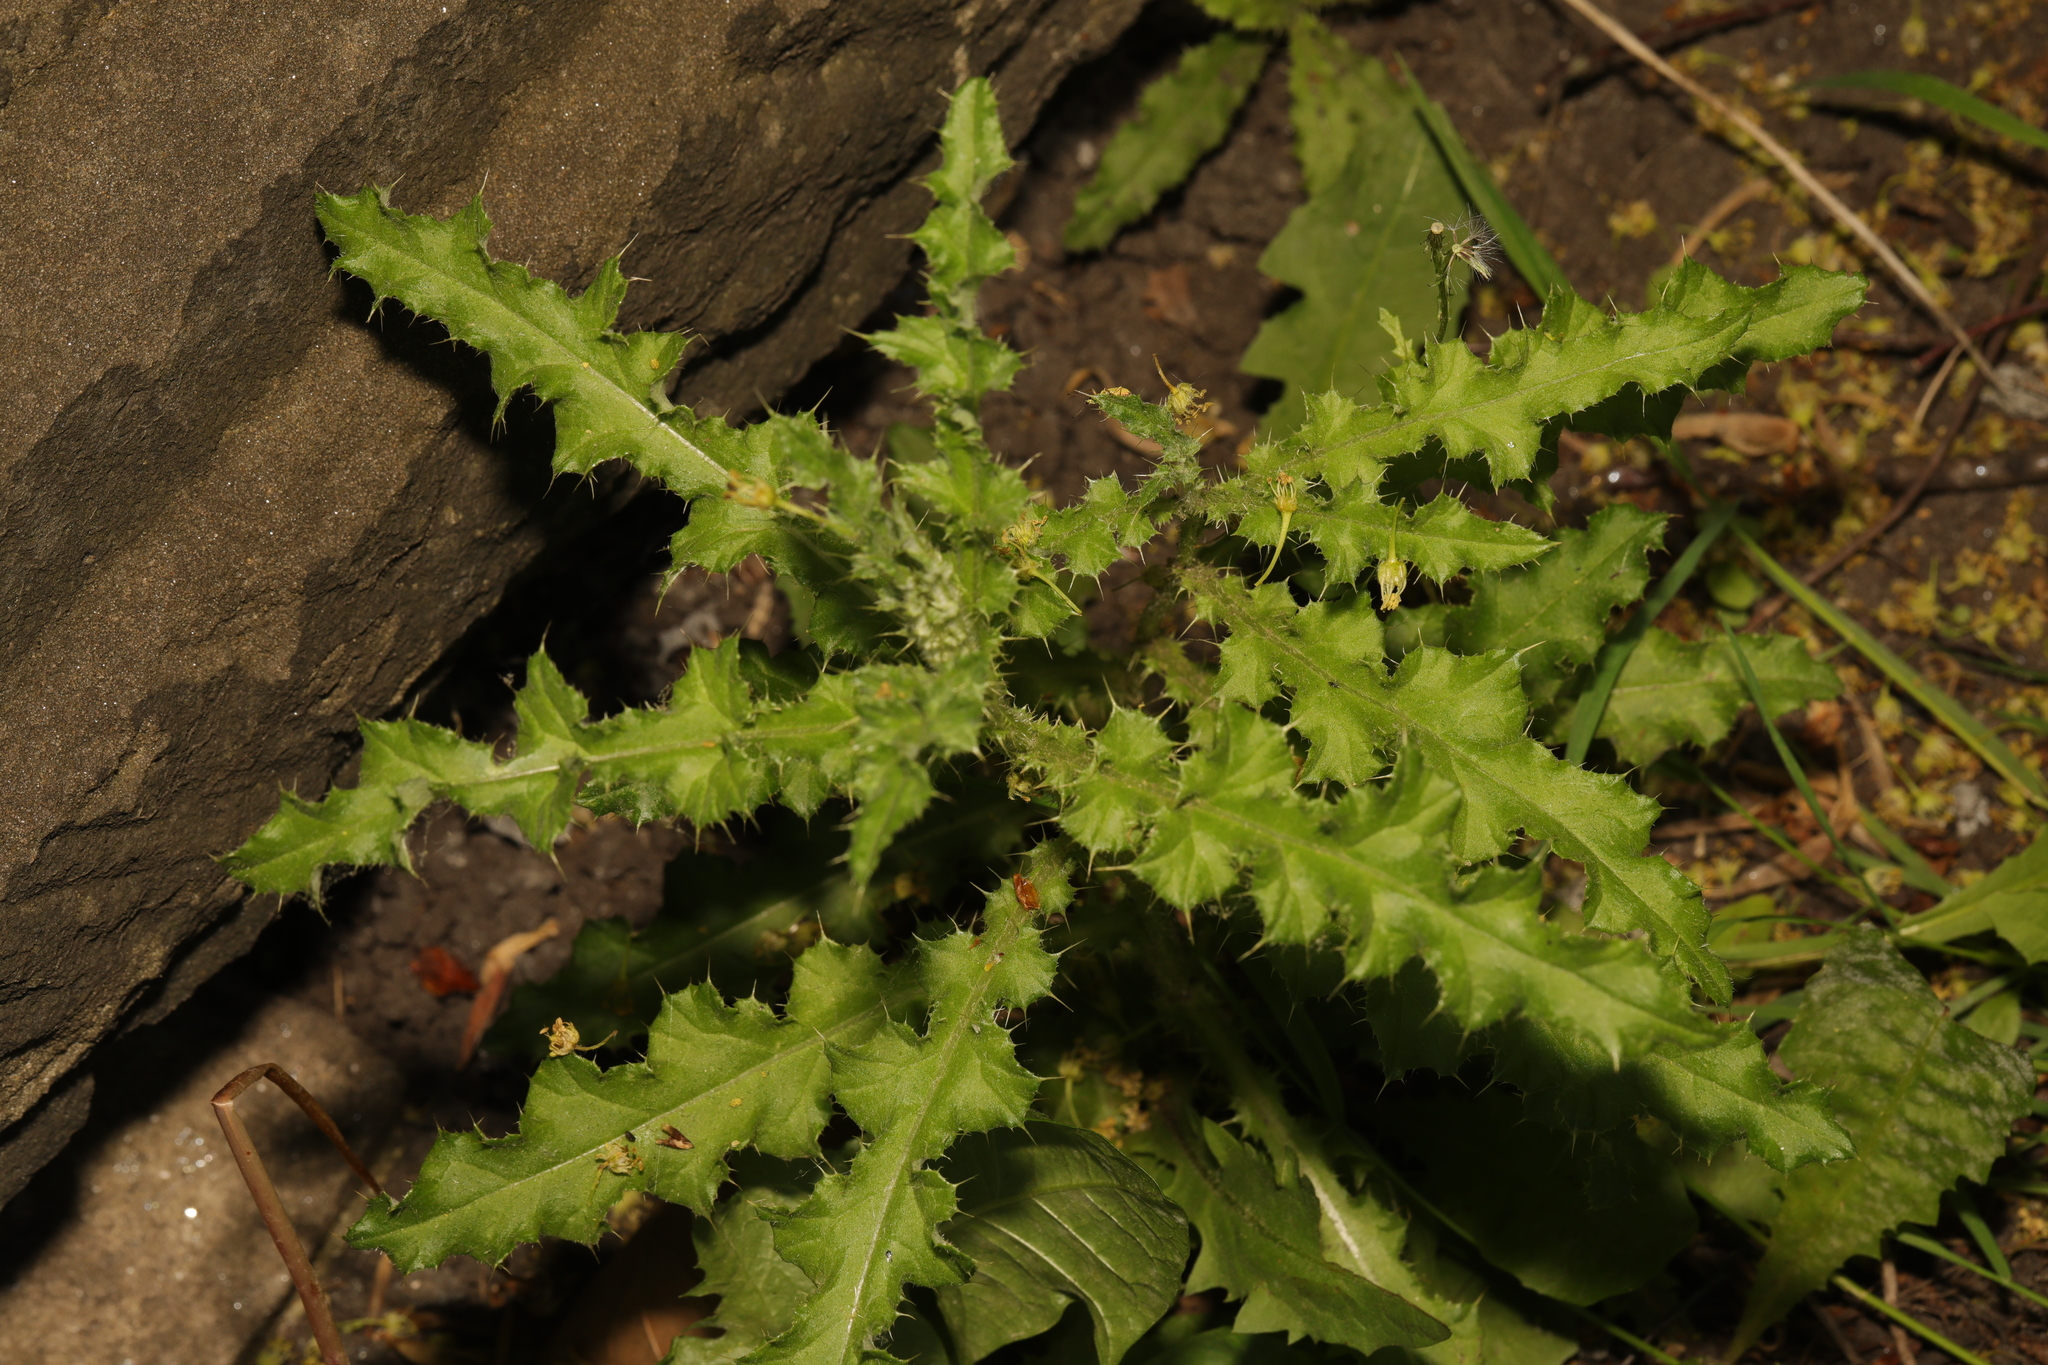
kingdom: Plantae
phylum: Tracheophyta
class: Magnoliopsida
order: Asterales
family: Asteraceae
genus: Cirsium
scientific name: Cirsium arvense
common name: Creeping thistle
